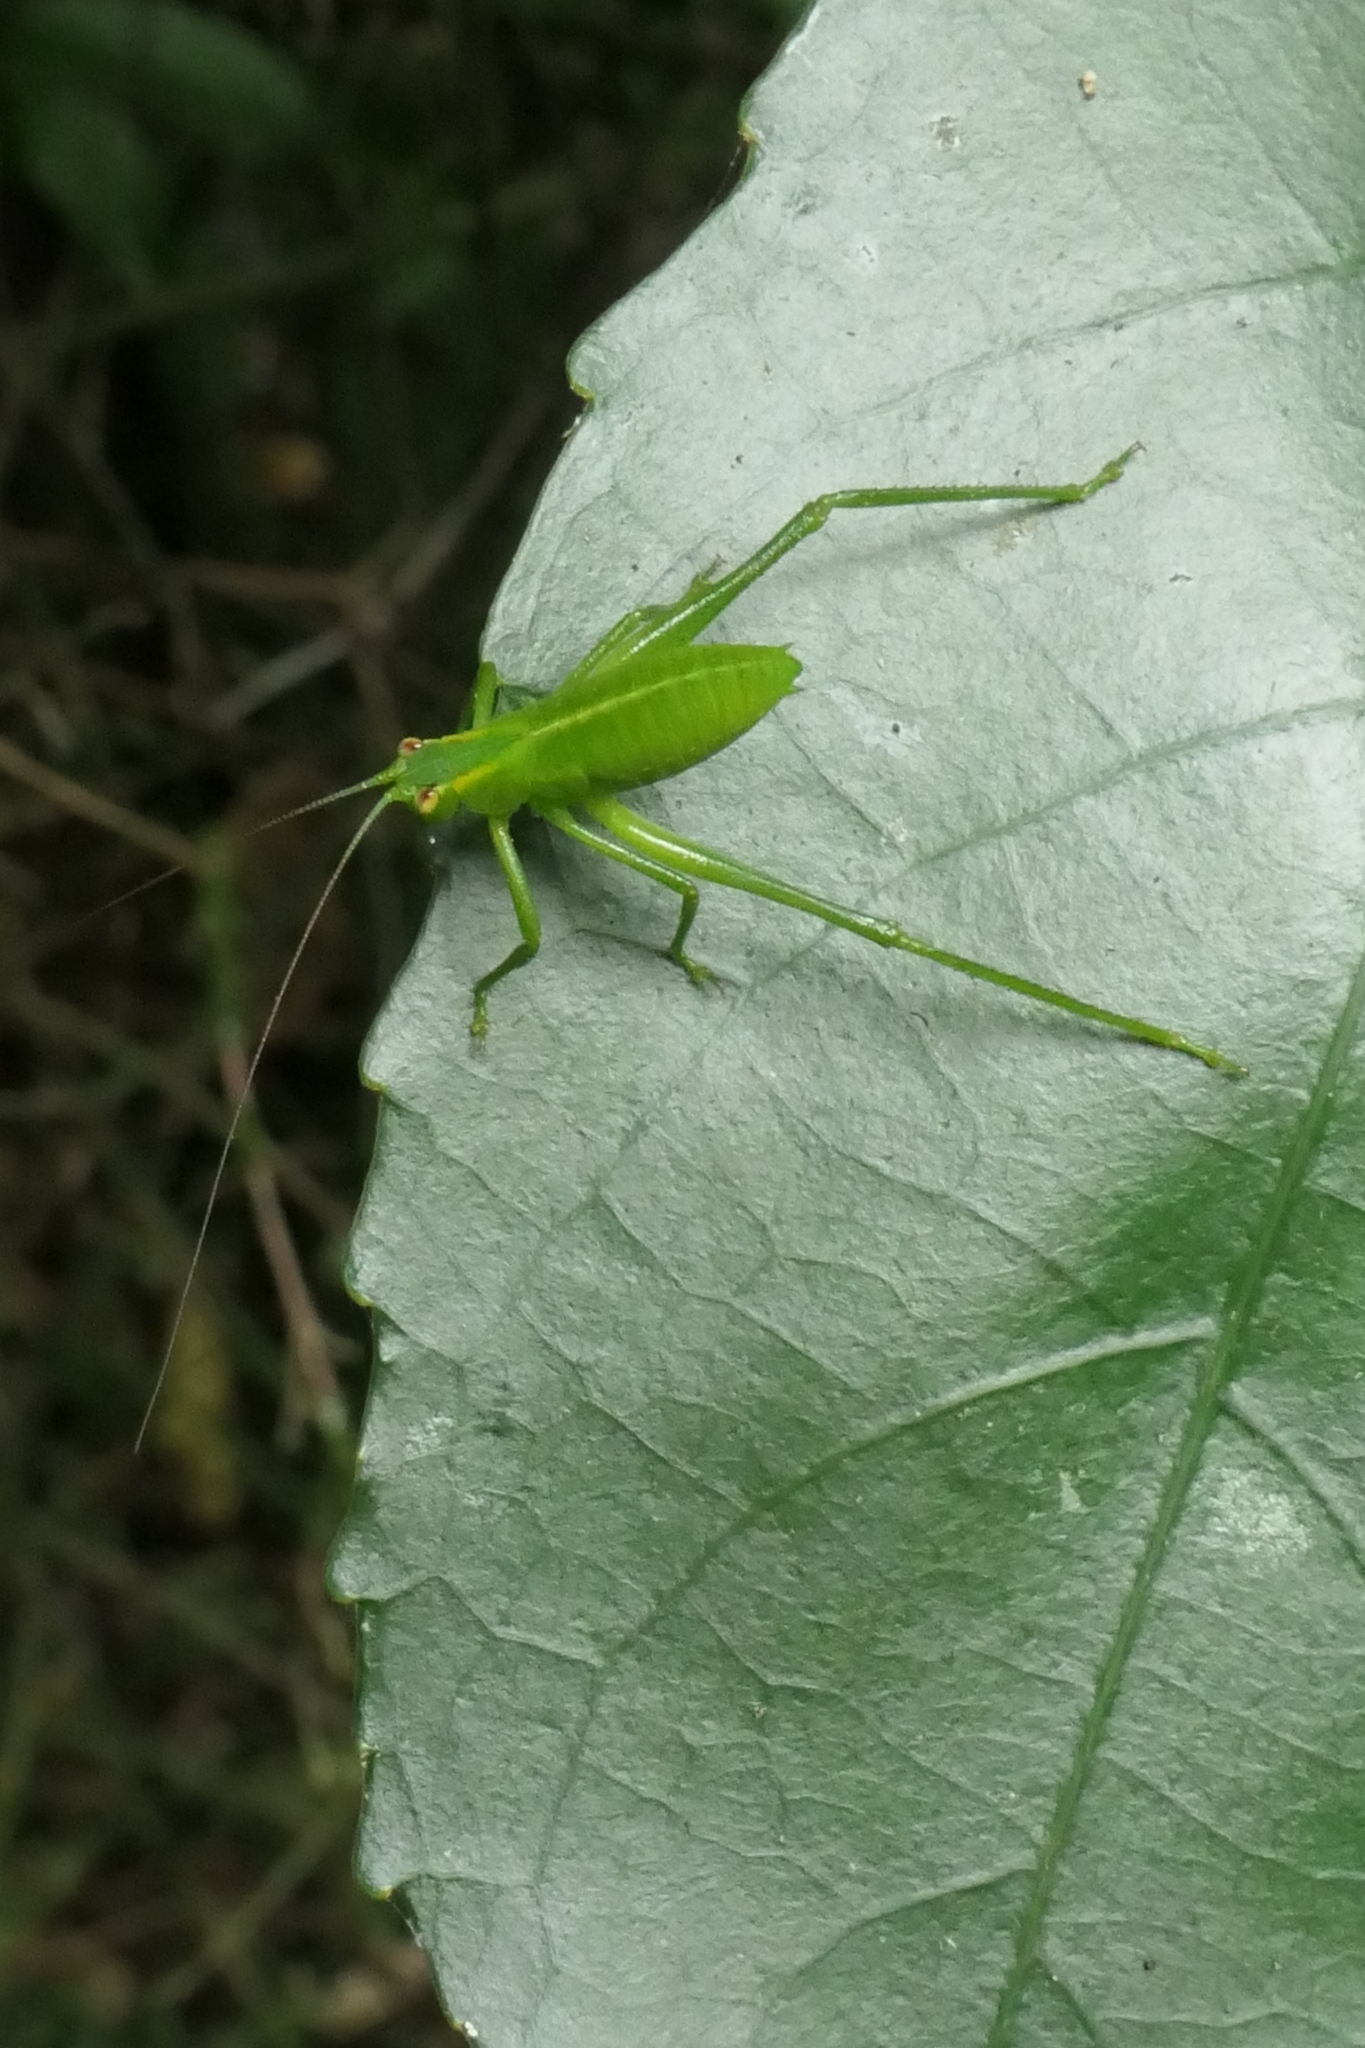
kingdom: Animalia
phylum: Arthropoda
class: Insecta
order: Orthoptera
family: Tettigoniidae
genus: Caedicia
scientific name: Caedicia simplex
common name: Common garden katydid
